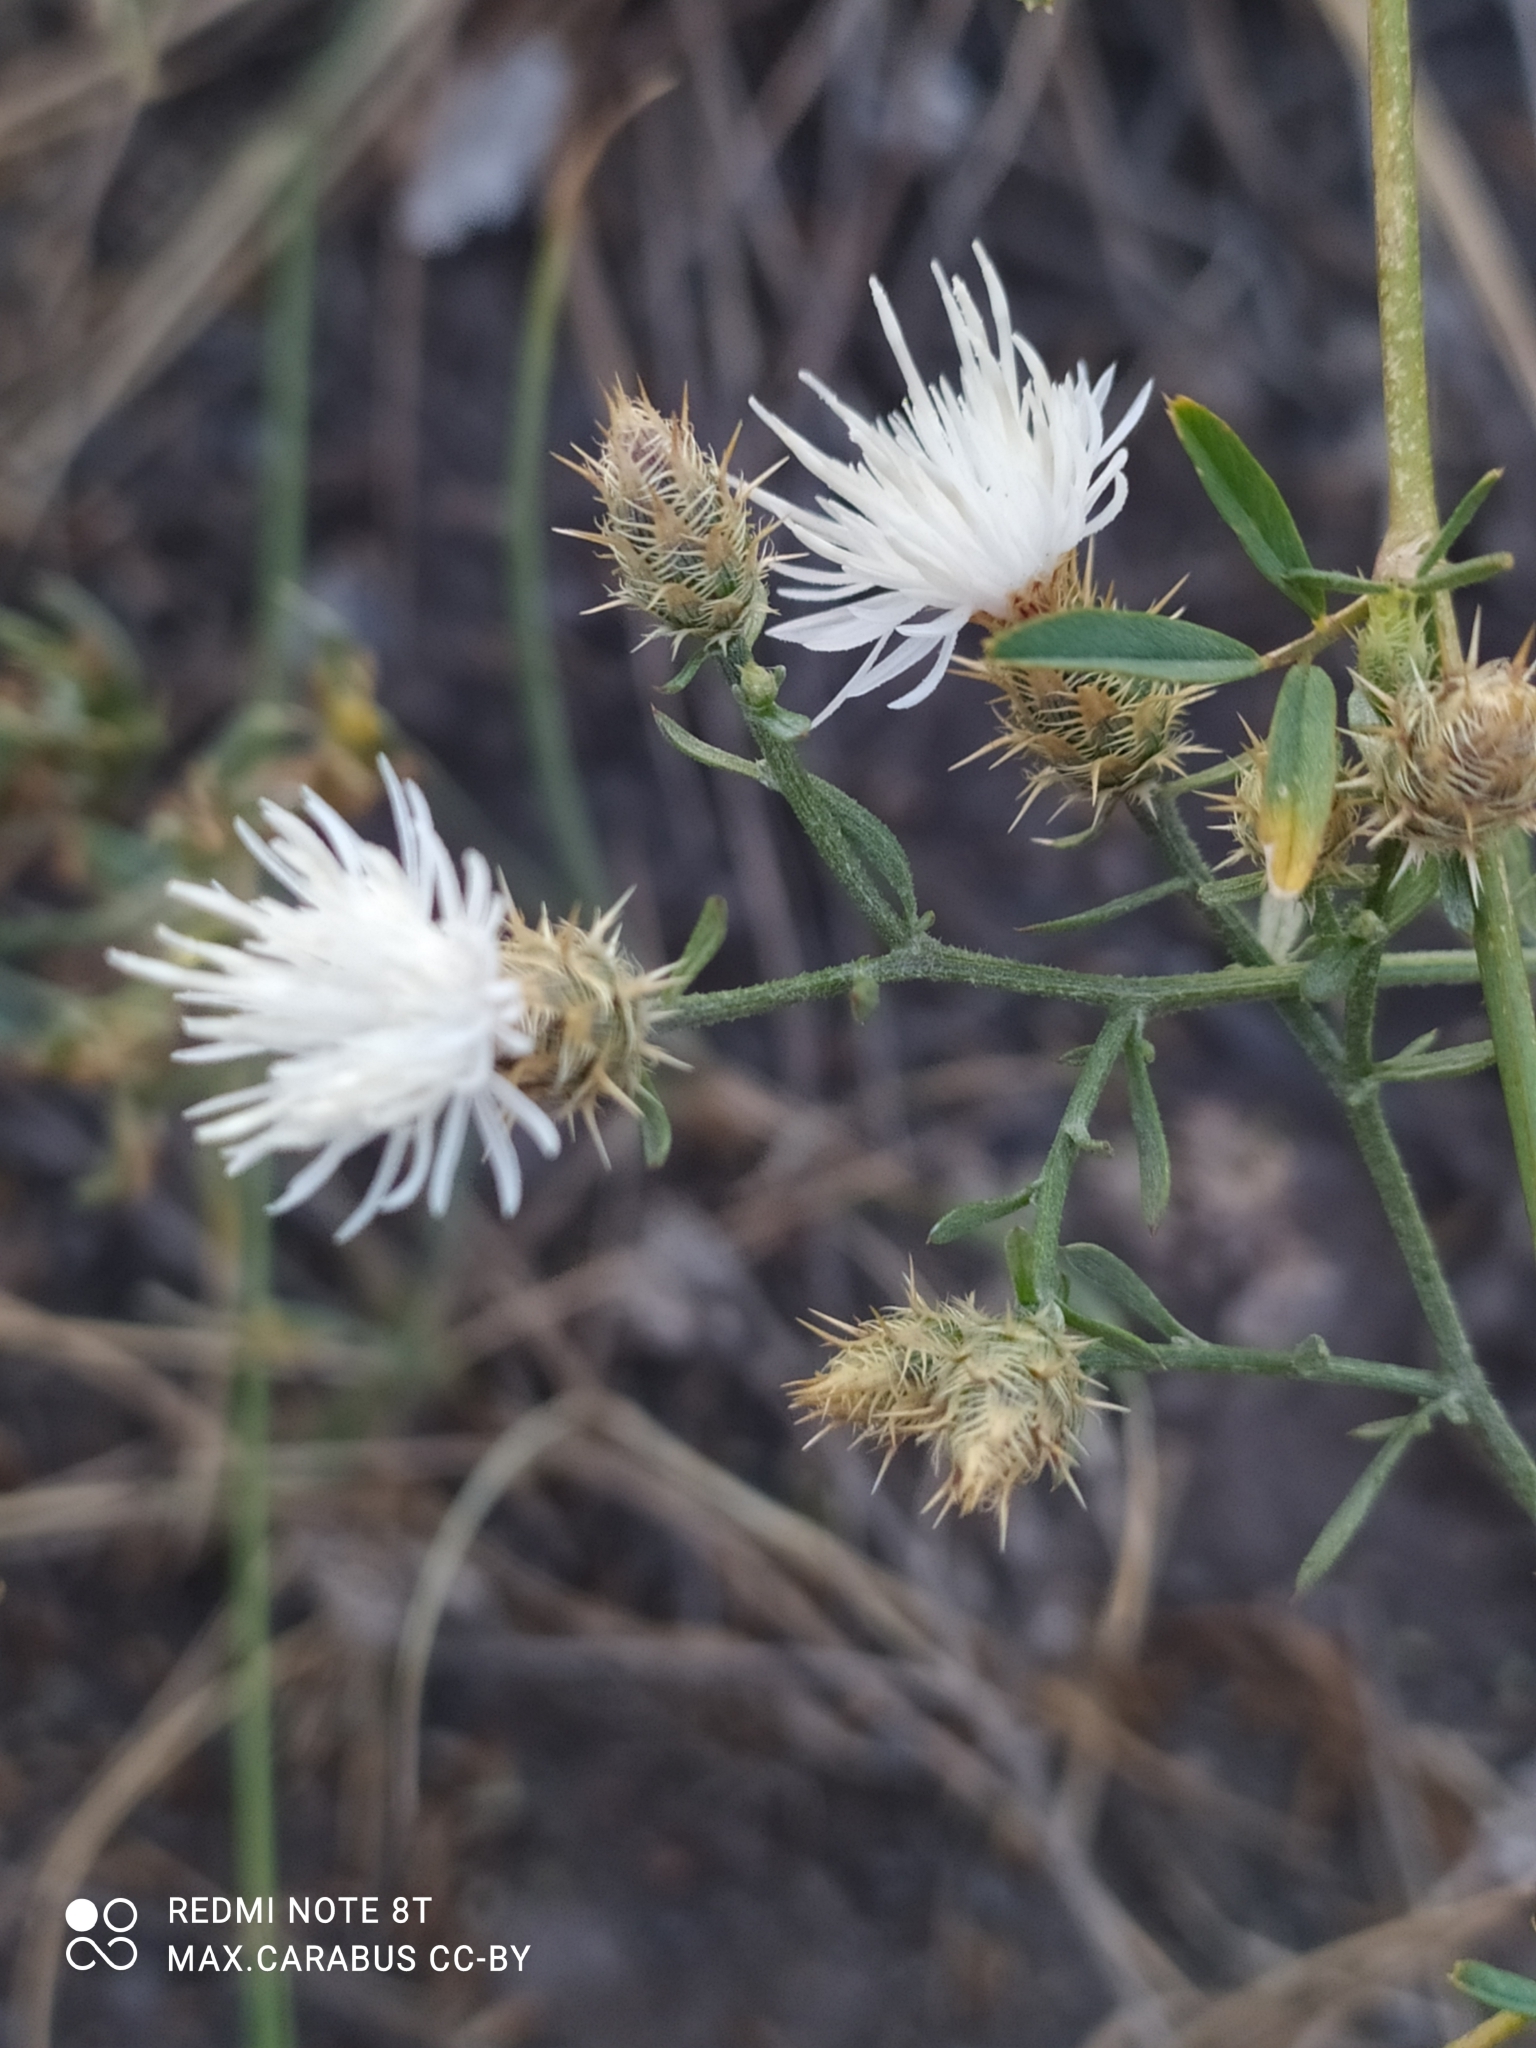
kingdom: Plantae
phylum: Tracheophyta
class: Magnoliopsida
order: Asterales
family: Asteraceae
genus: Centaurea
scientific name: Centaurea diffusa
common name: Diffuse knapweed
